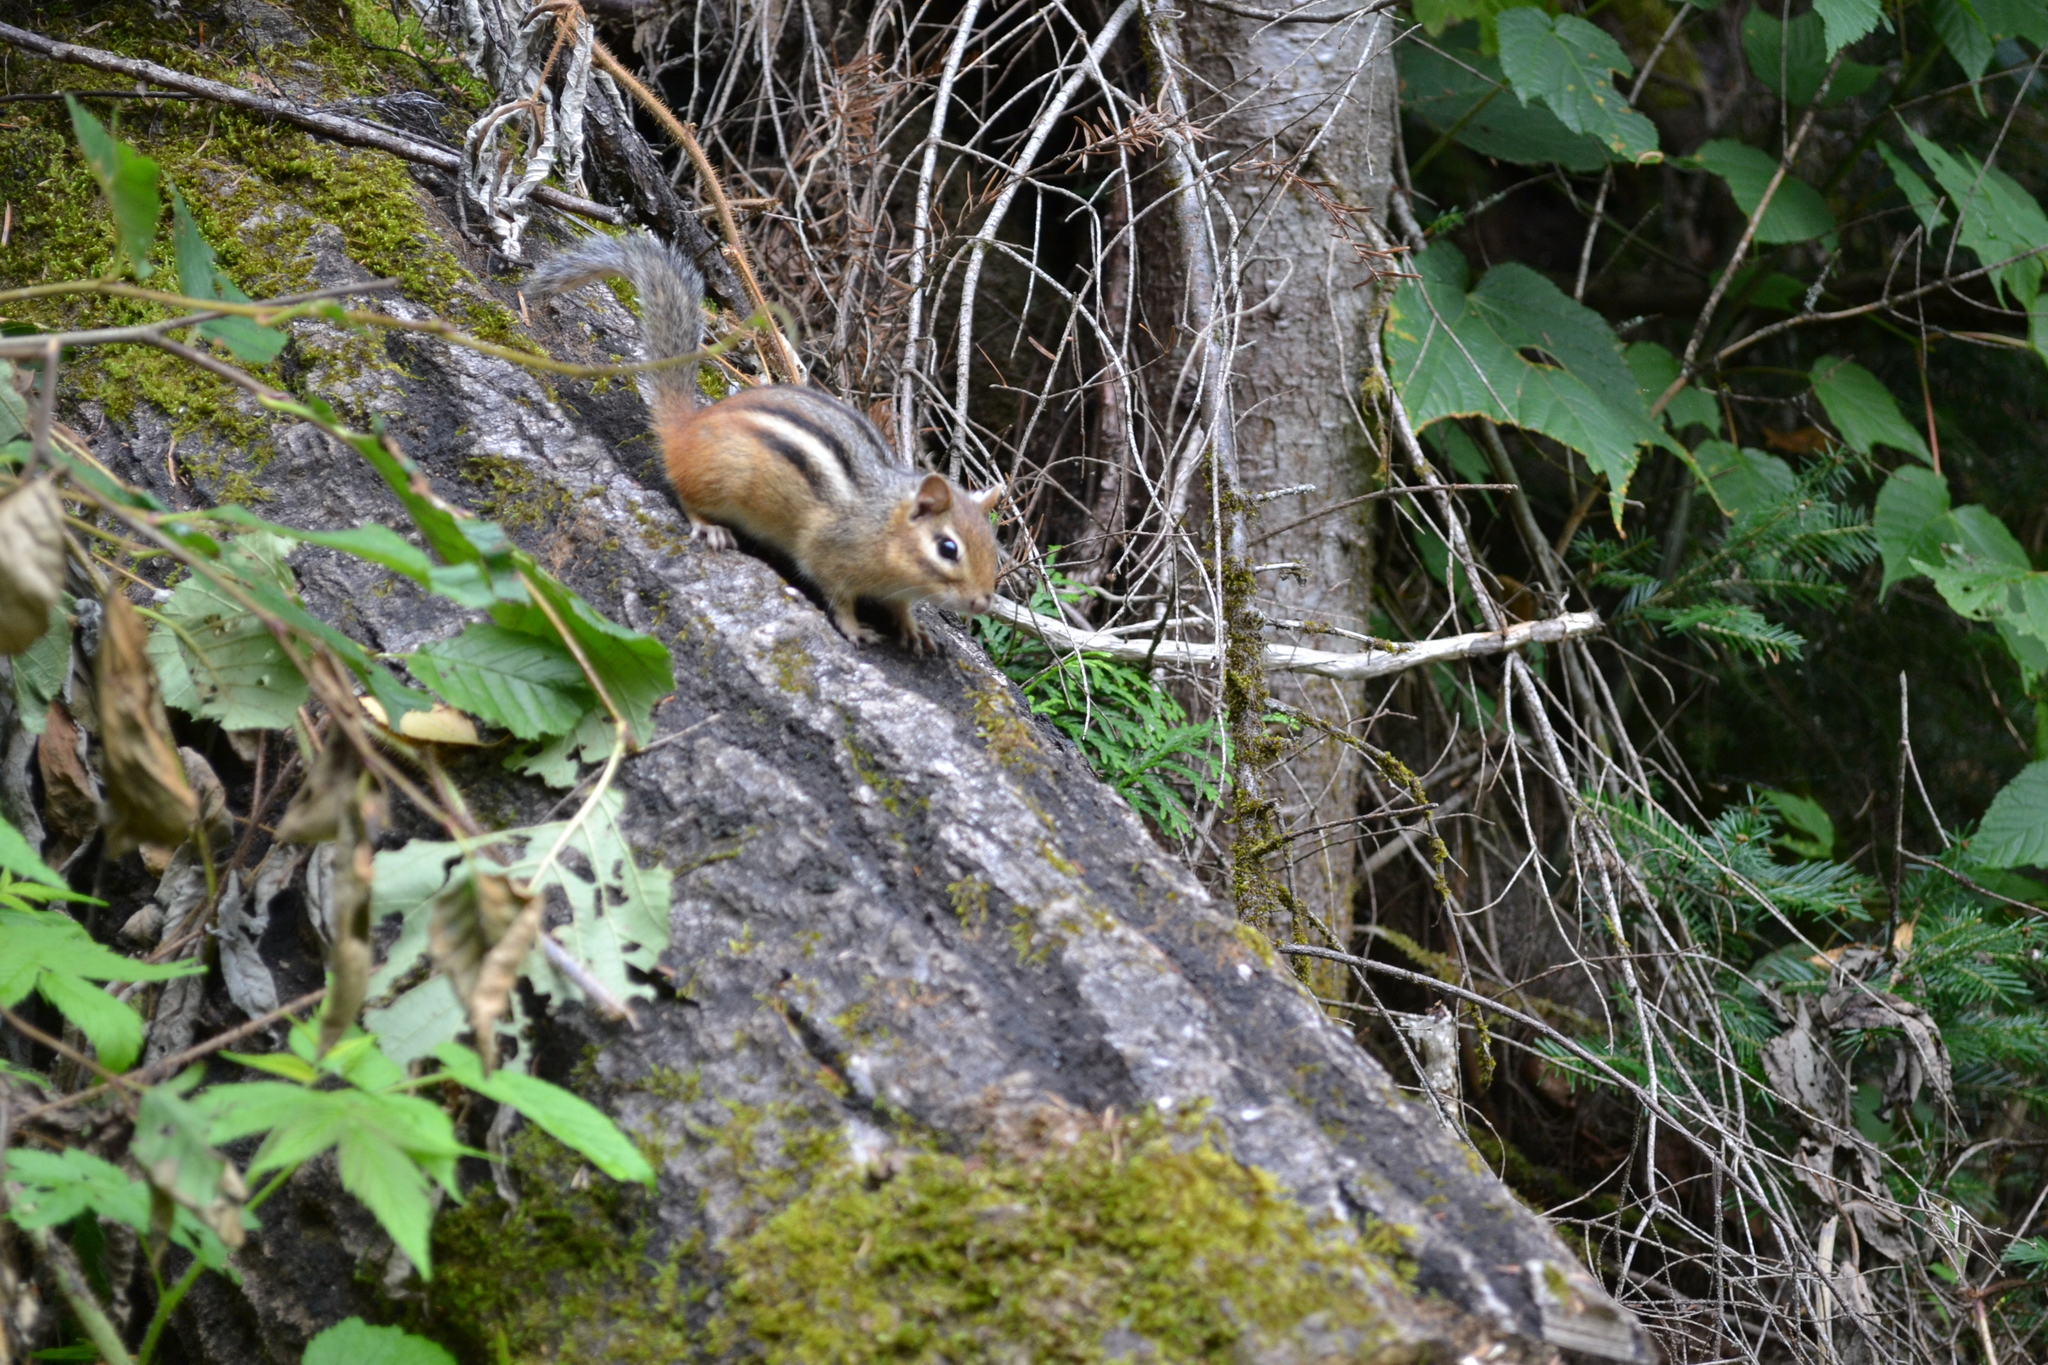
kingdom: Animalia
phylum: Chordata
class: Mammalia
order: Rodentia
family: Sciuridae
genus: Tamias
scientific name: Tamias striatus
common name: Eastern chipmunk
